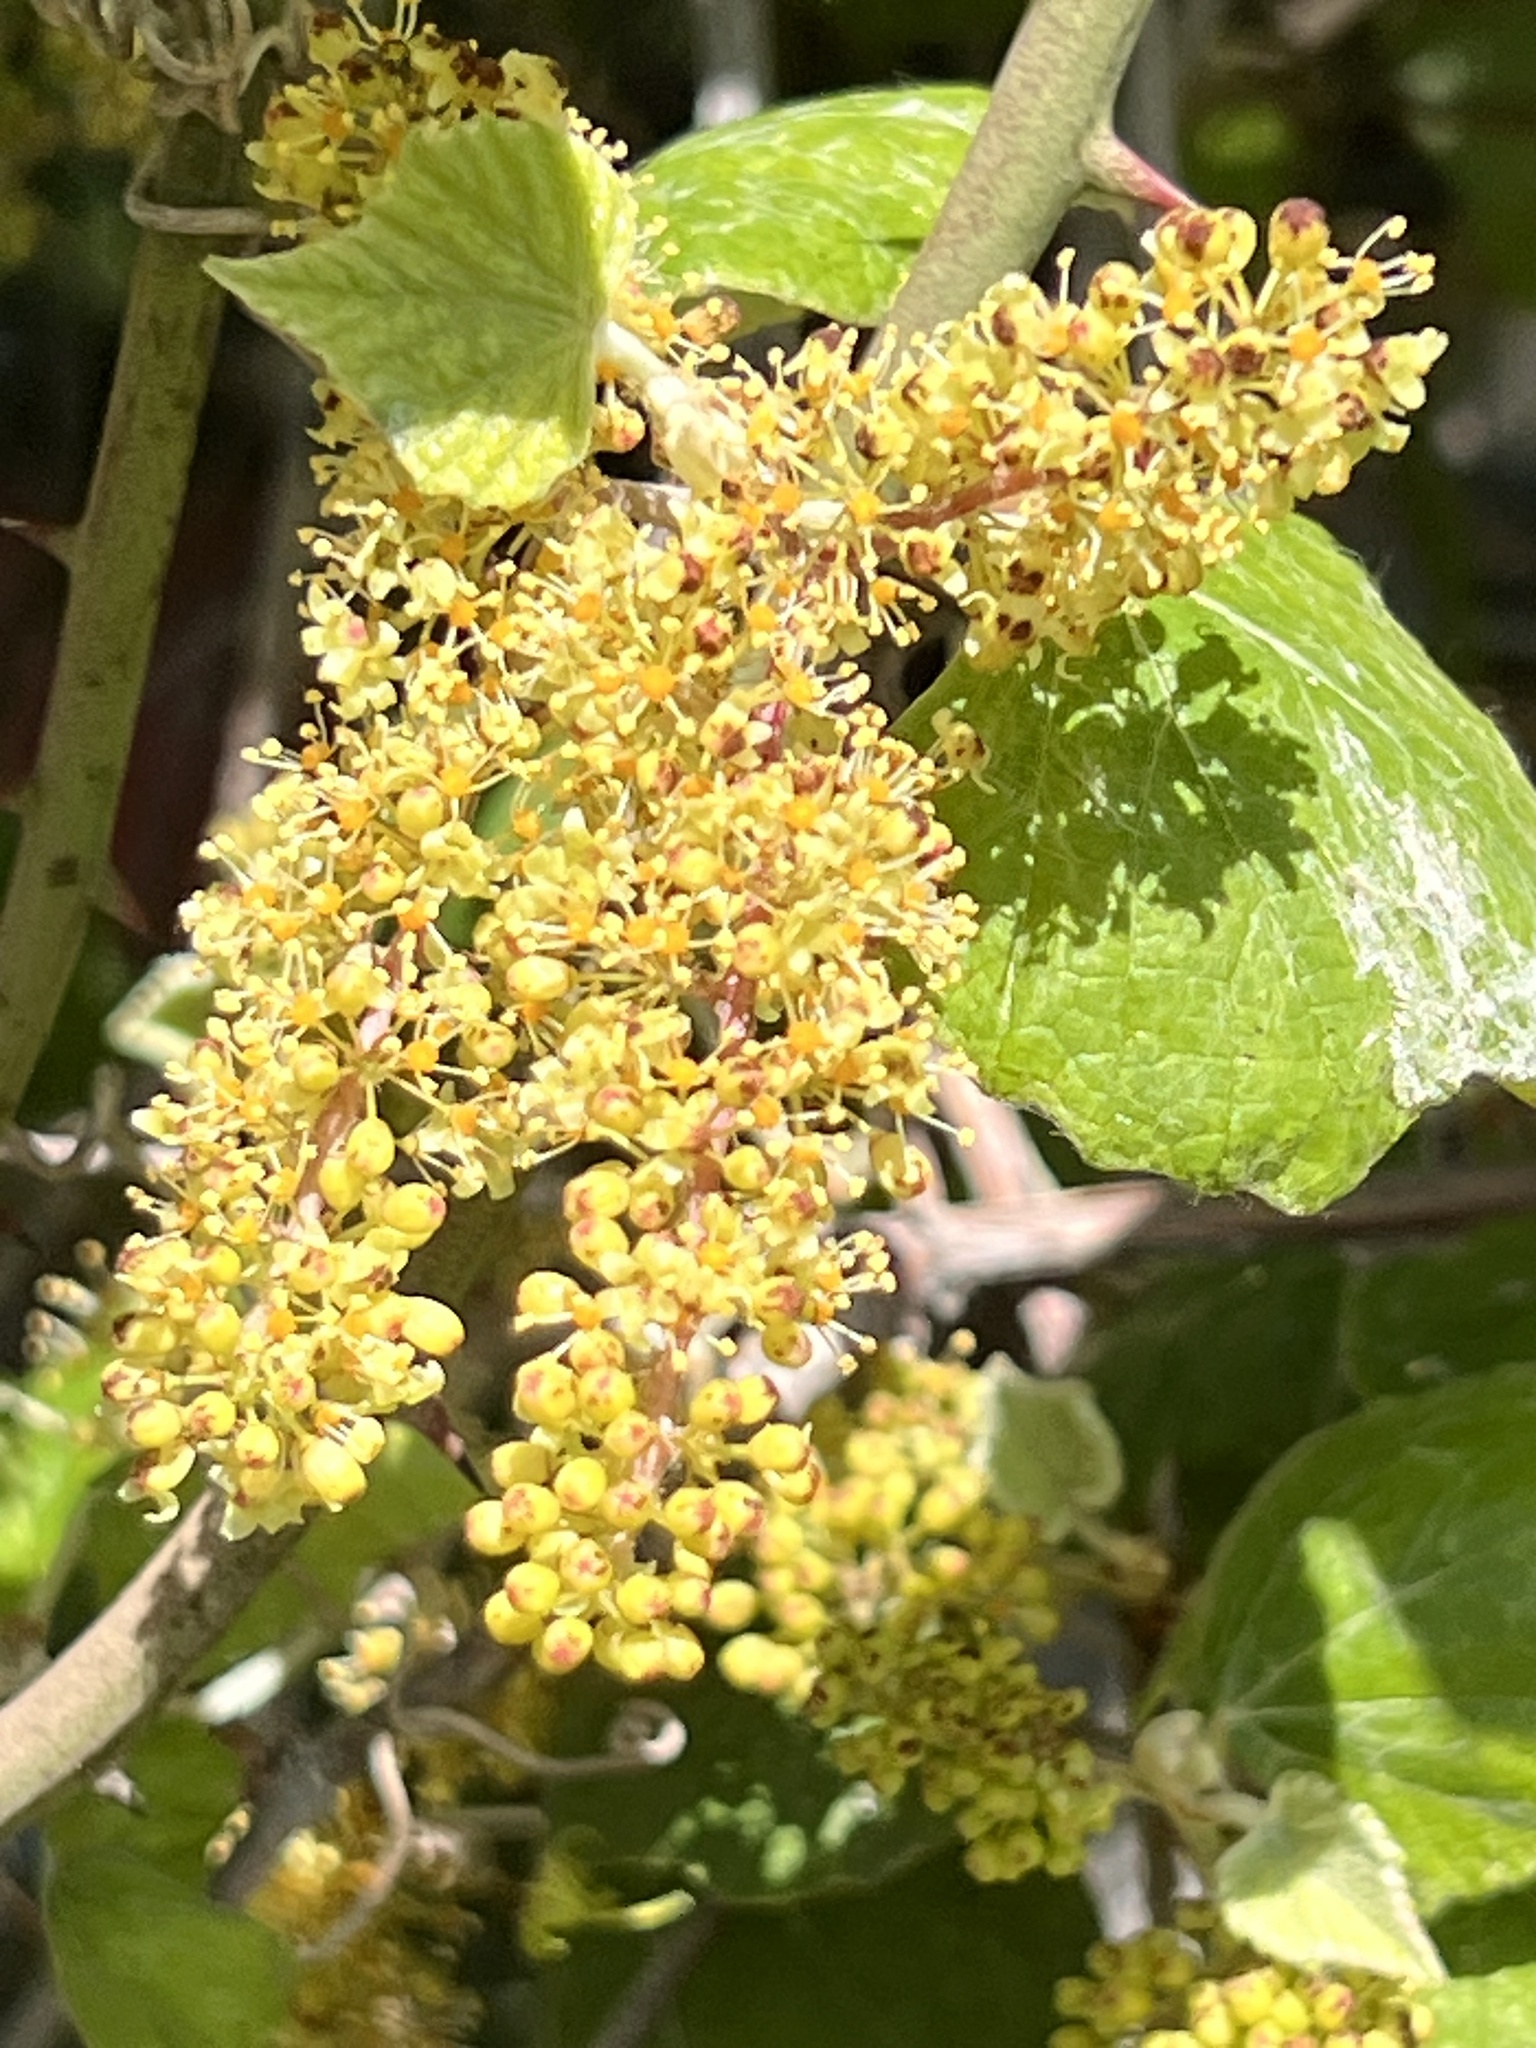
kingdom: Plantae
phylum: Tracheophyta
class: Magnoliopsida
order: Vitales
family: Vitaceae
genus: Vitis
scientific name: Vitis mustangensis
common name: Mustang grape
